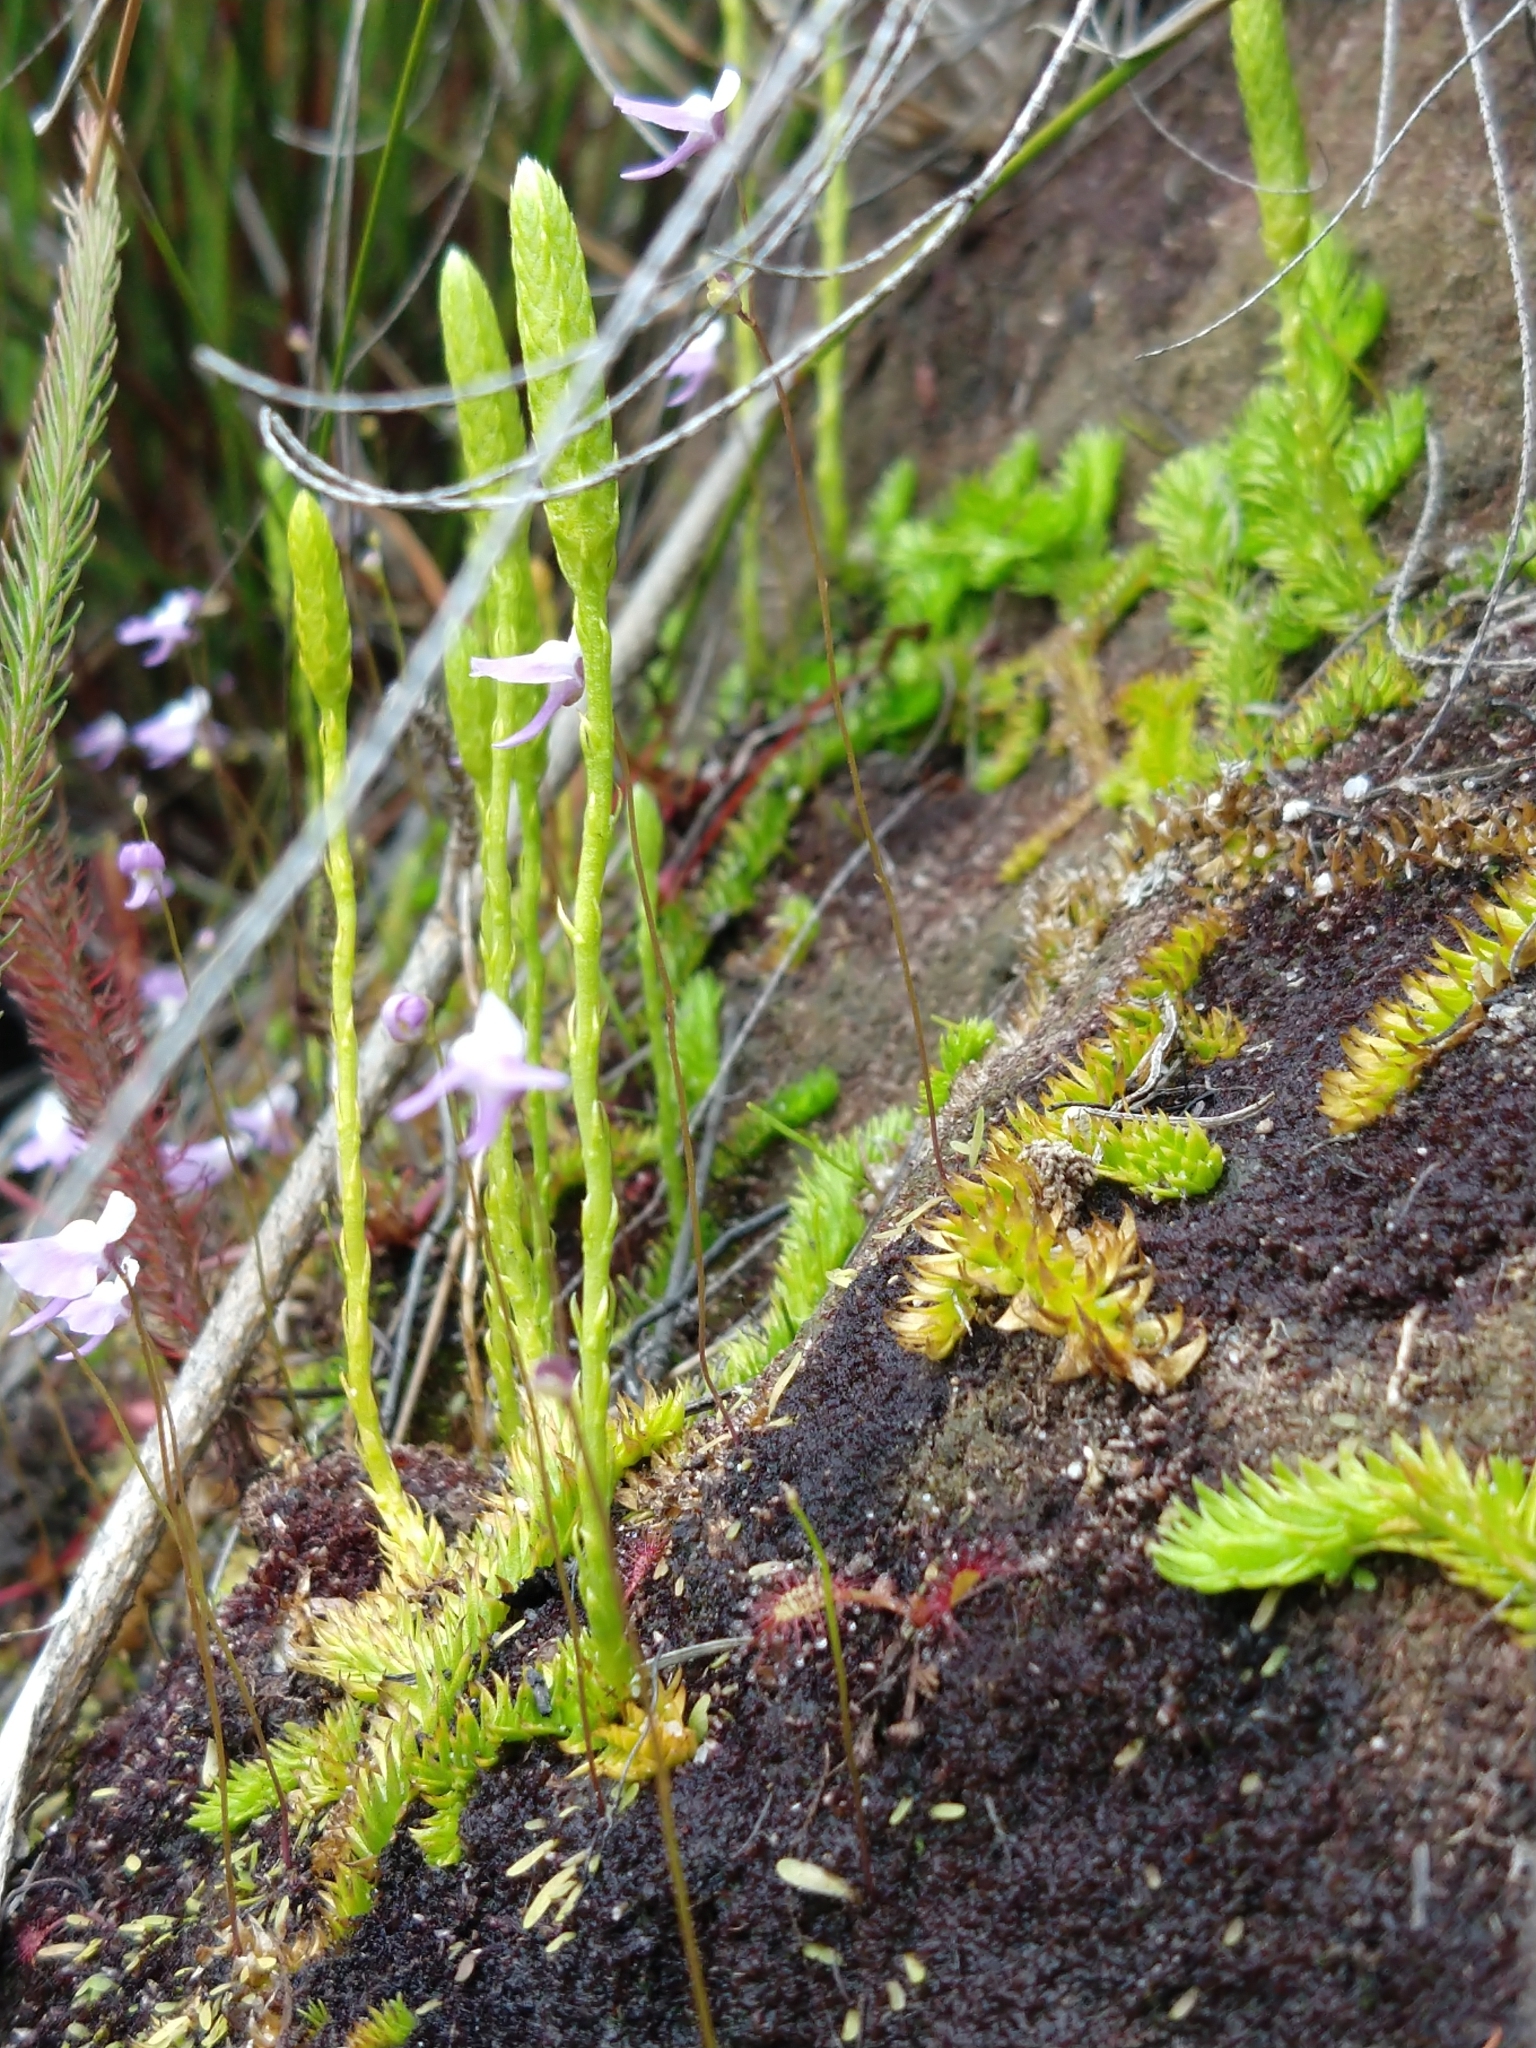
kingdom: Plantae
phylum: Tracheophyta
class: Lycopodiopsida
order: Lycopodiales
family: Lycopodiaceae
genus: Pseudolycopodiella
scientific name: Pseudolycopodiella caroliniana
